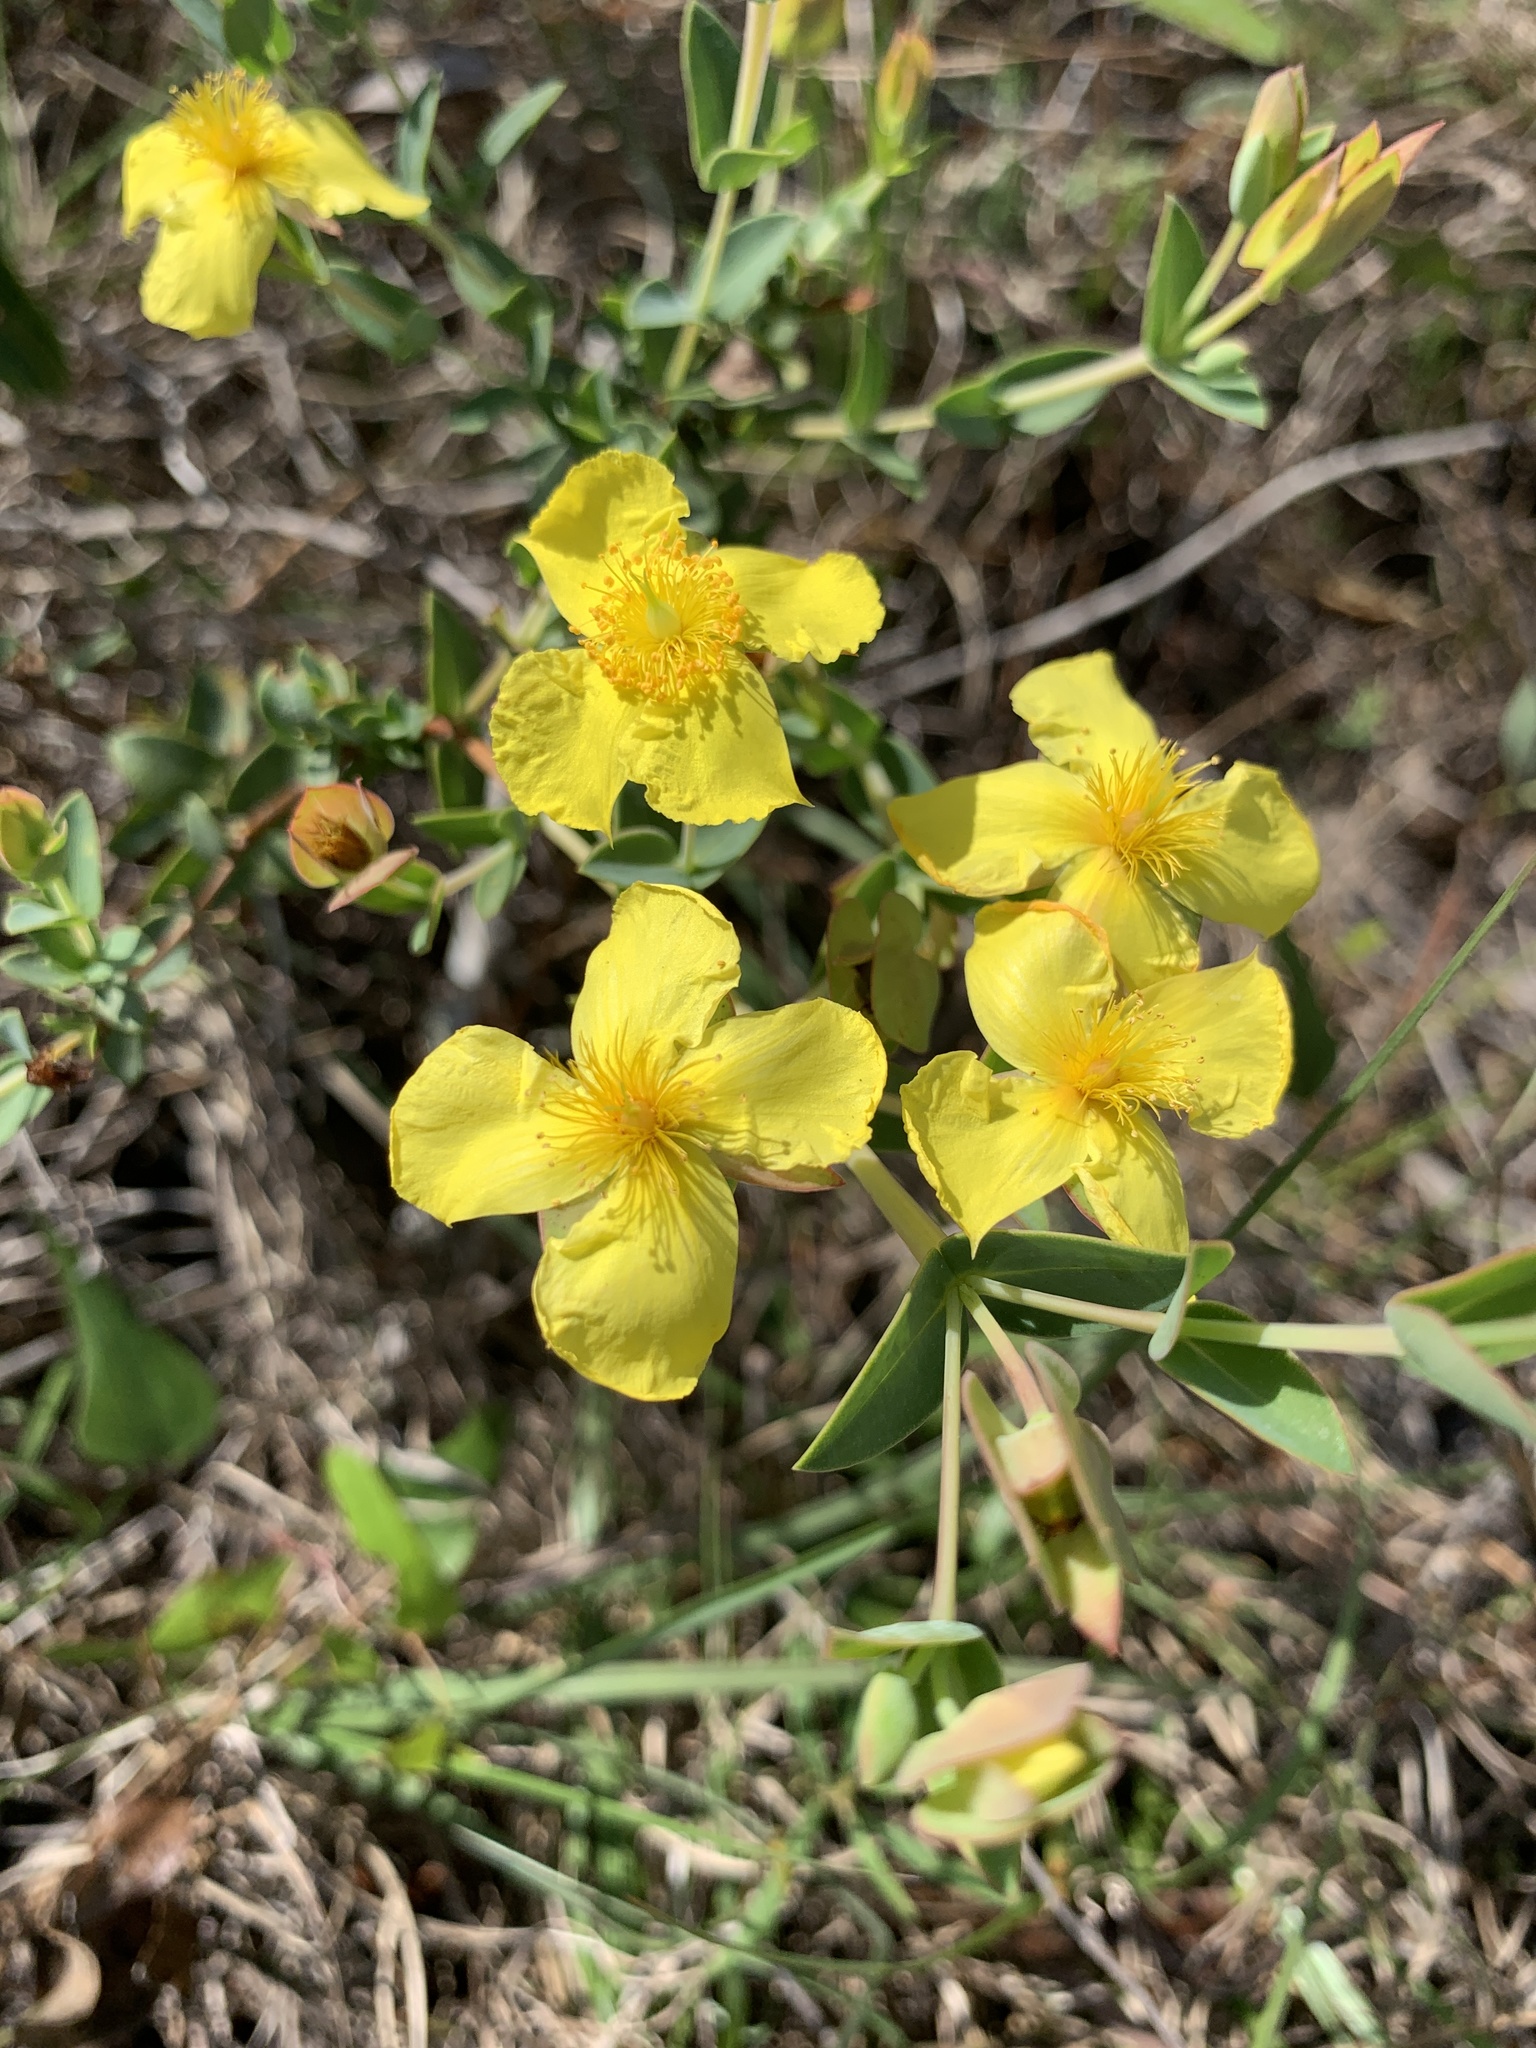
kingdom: Plantae
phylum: Tracheophyta
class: Magnoliopsida
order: Malpighiales
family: Hypericaceae
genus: Hypericum
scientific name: Hypericum tetrapetalum
